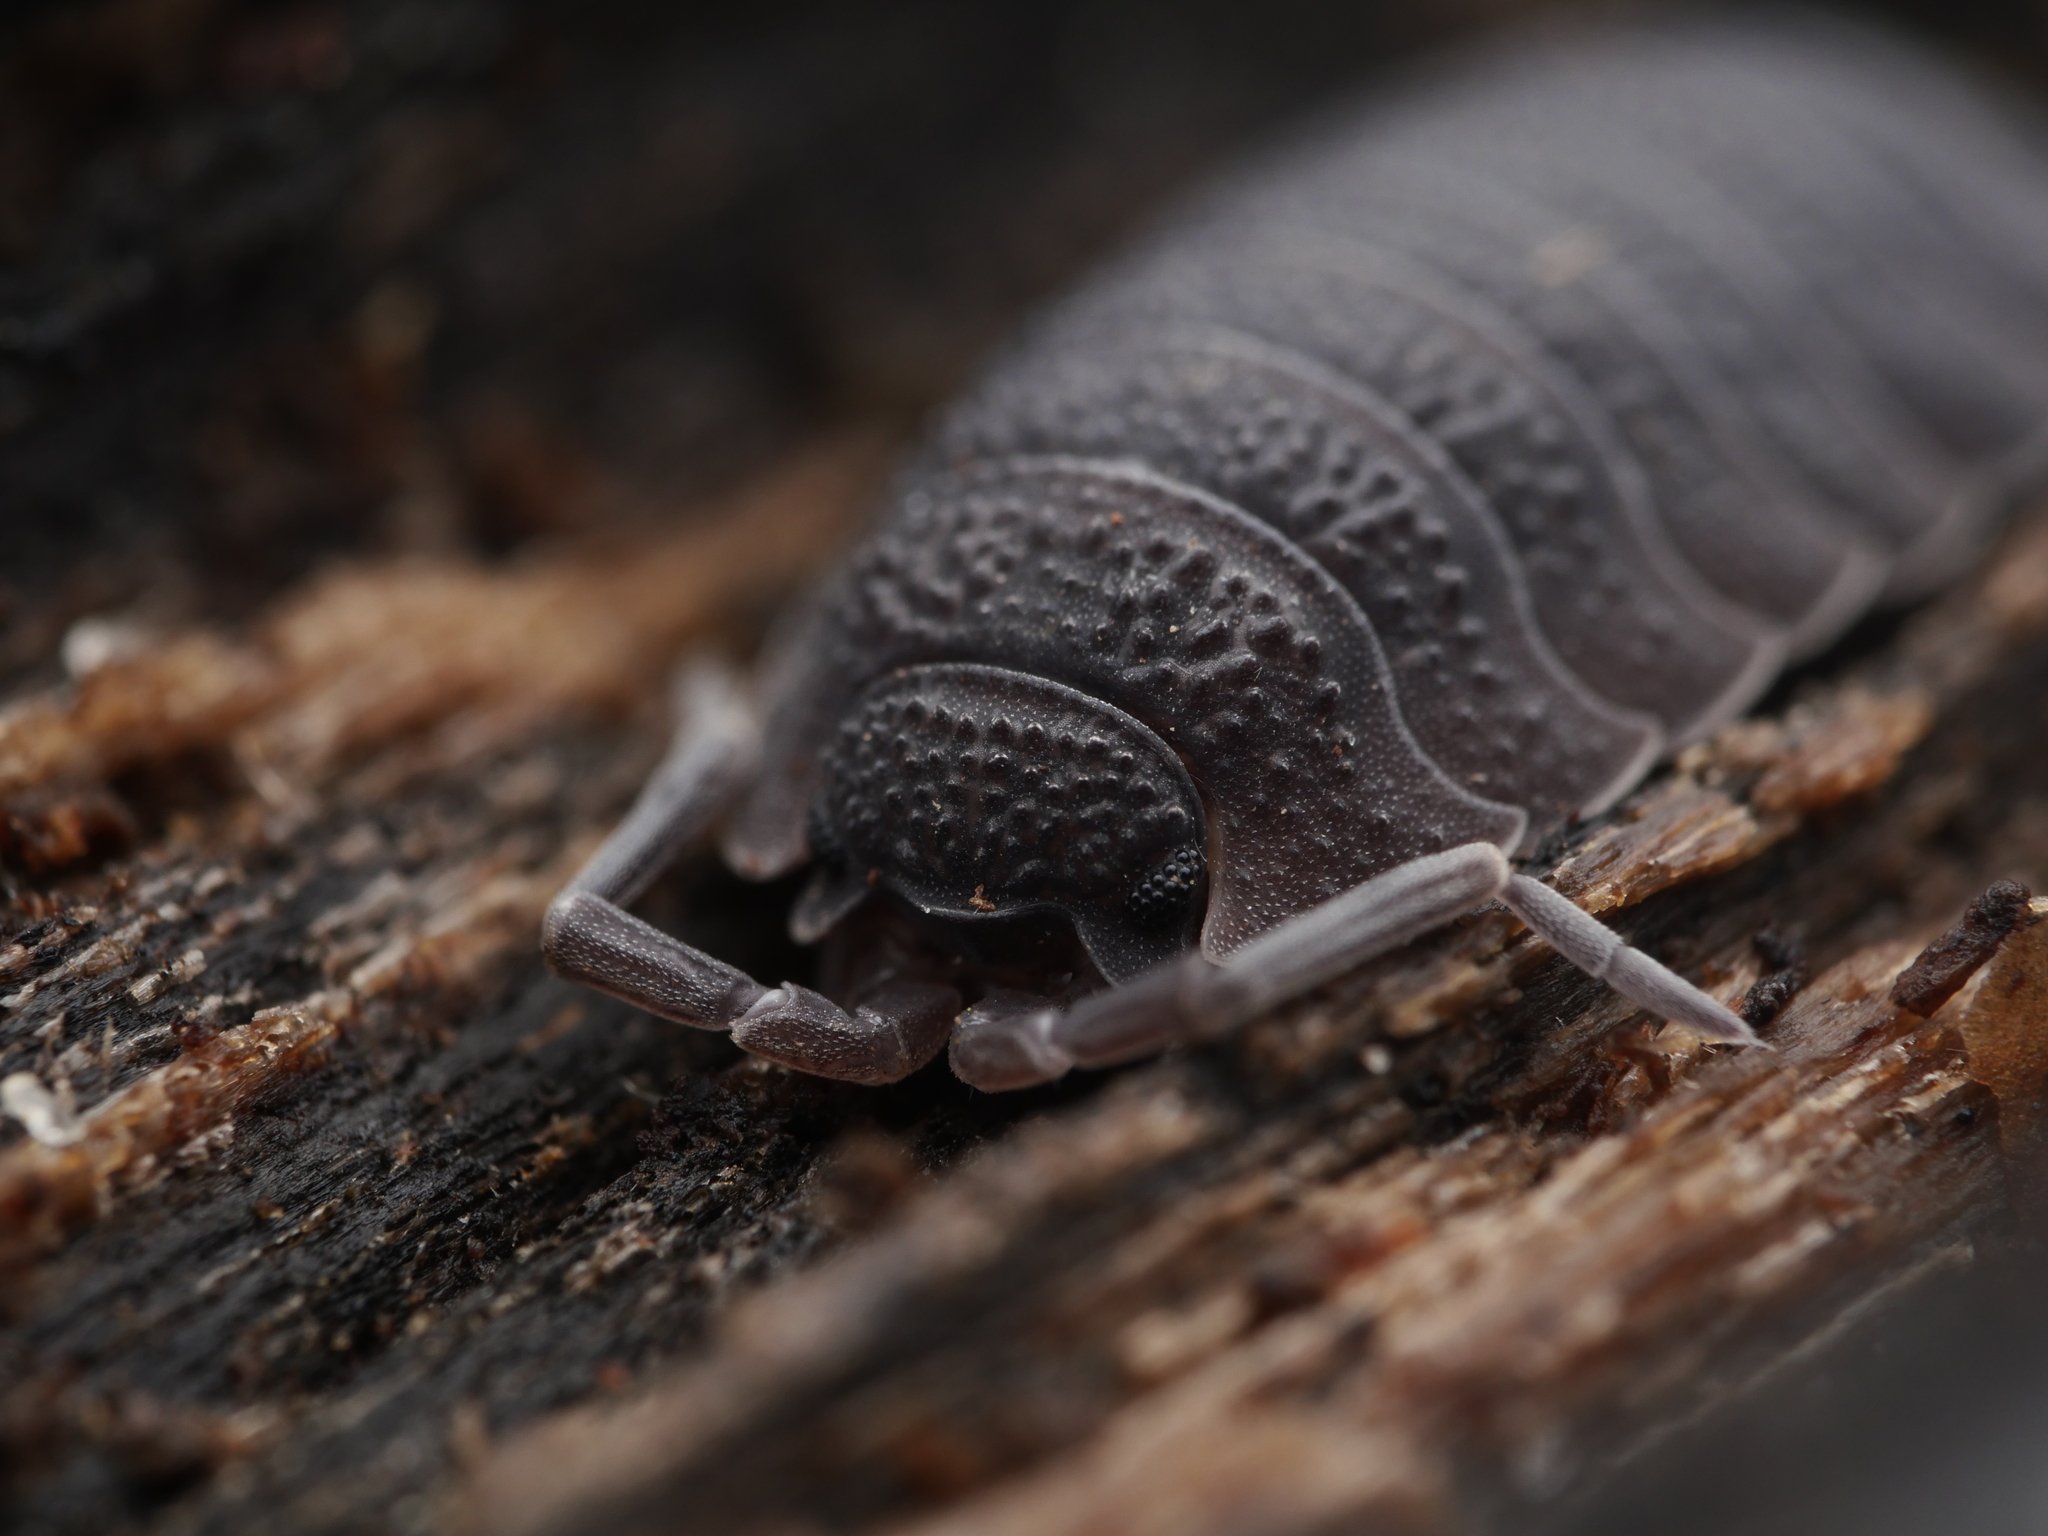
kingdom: Animalia
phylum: Arthropoda
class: Malacostraca
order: Isopoda
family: Porcellionidae
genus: Porcellio
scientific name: Porcellio scaber
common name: Common rough woodlouse
